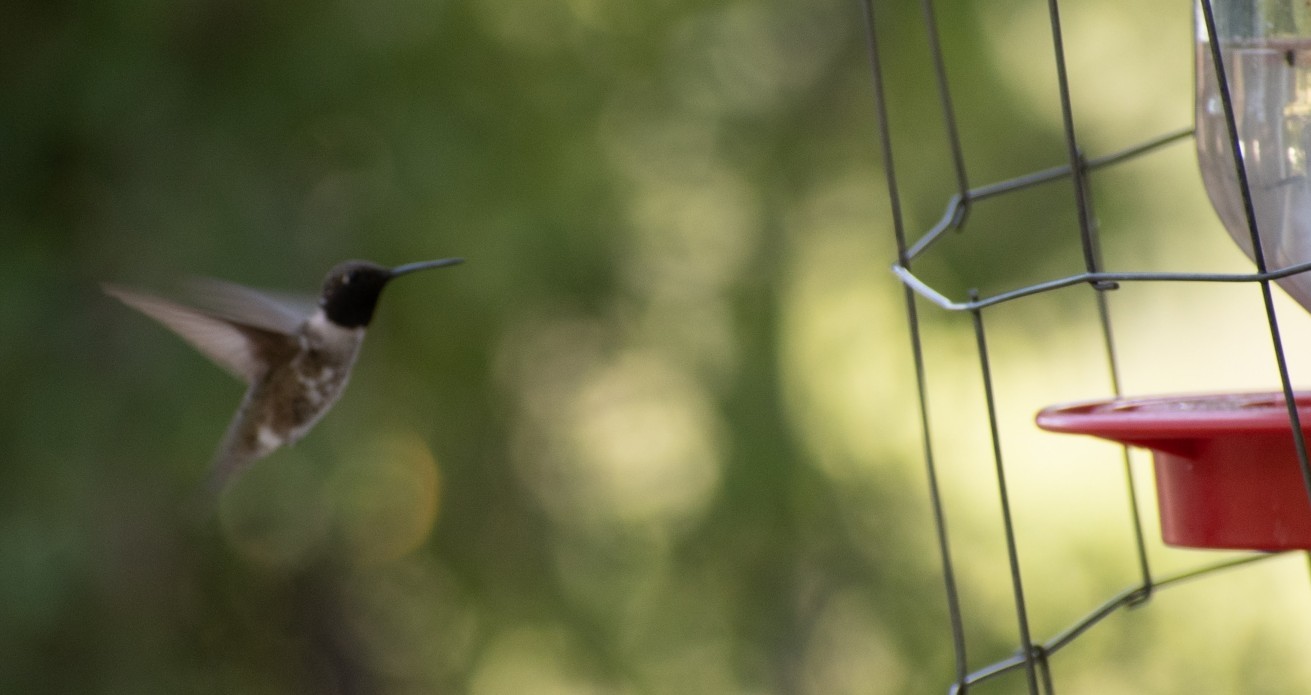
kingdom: Animalia
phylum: Chordata
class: Aves
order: Apodiformes
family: Trochilidae
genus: Archilochus
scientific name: Archilochus alexandri
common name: Black-chinned hummingbird
